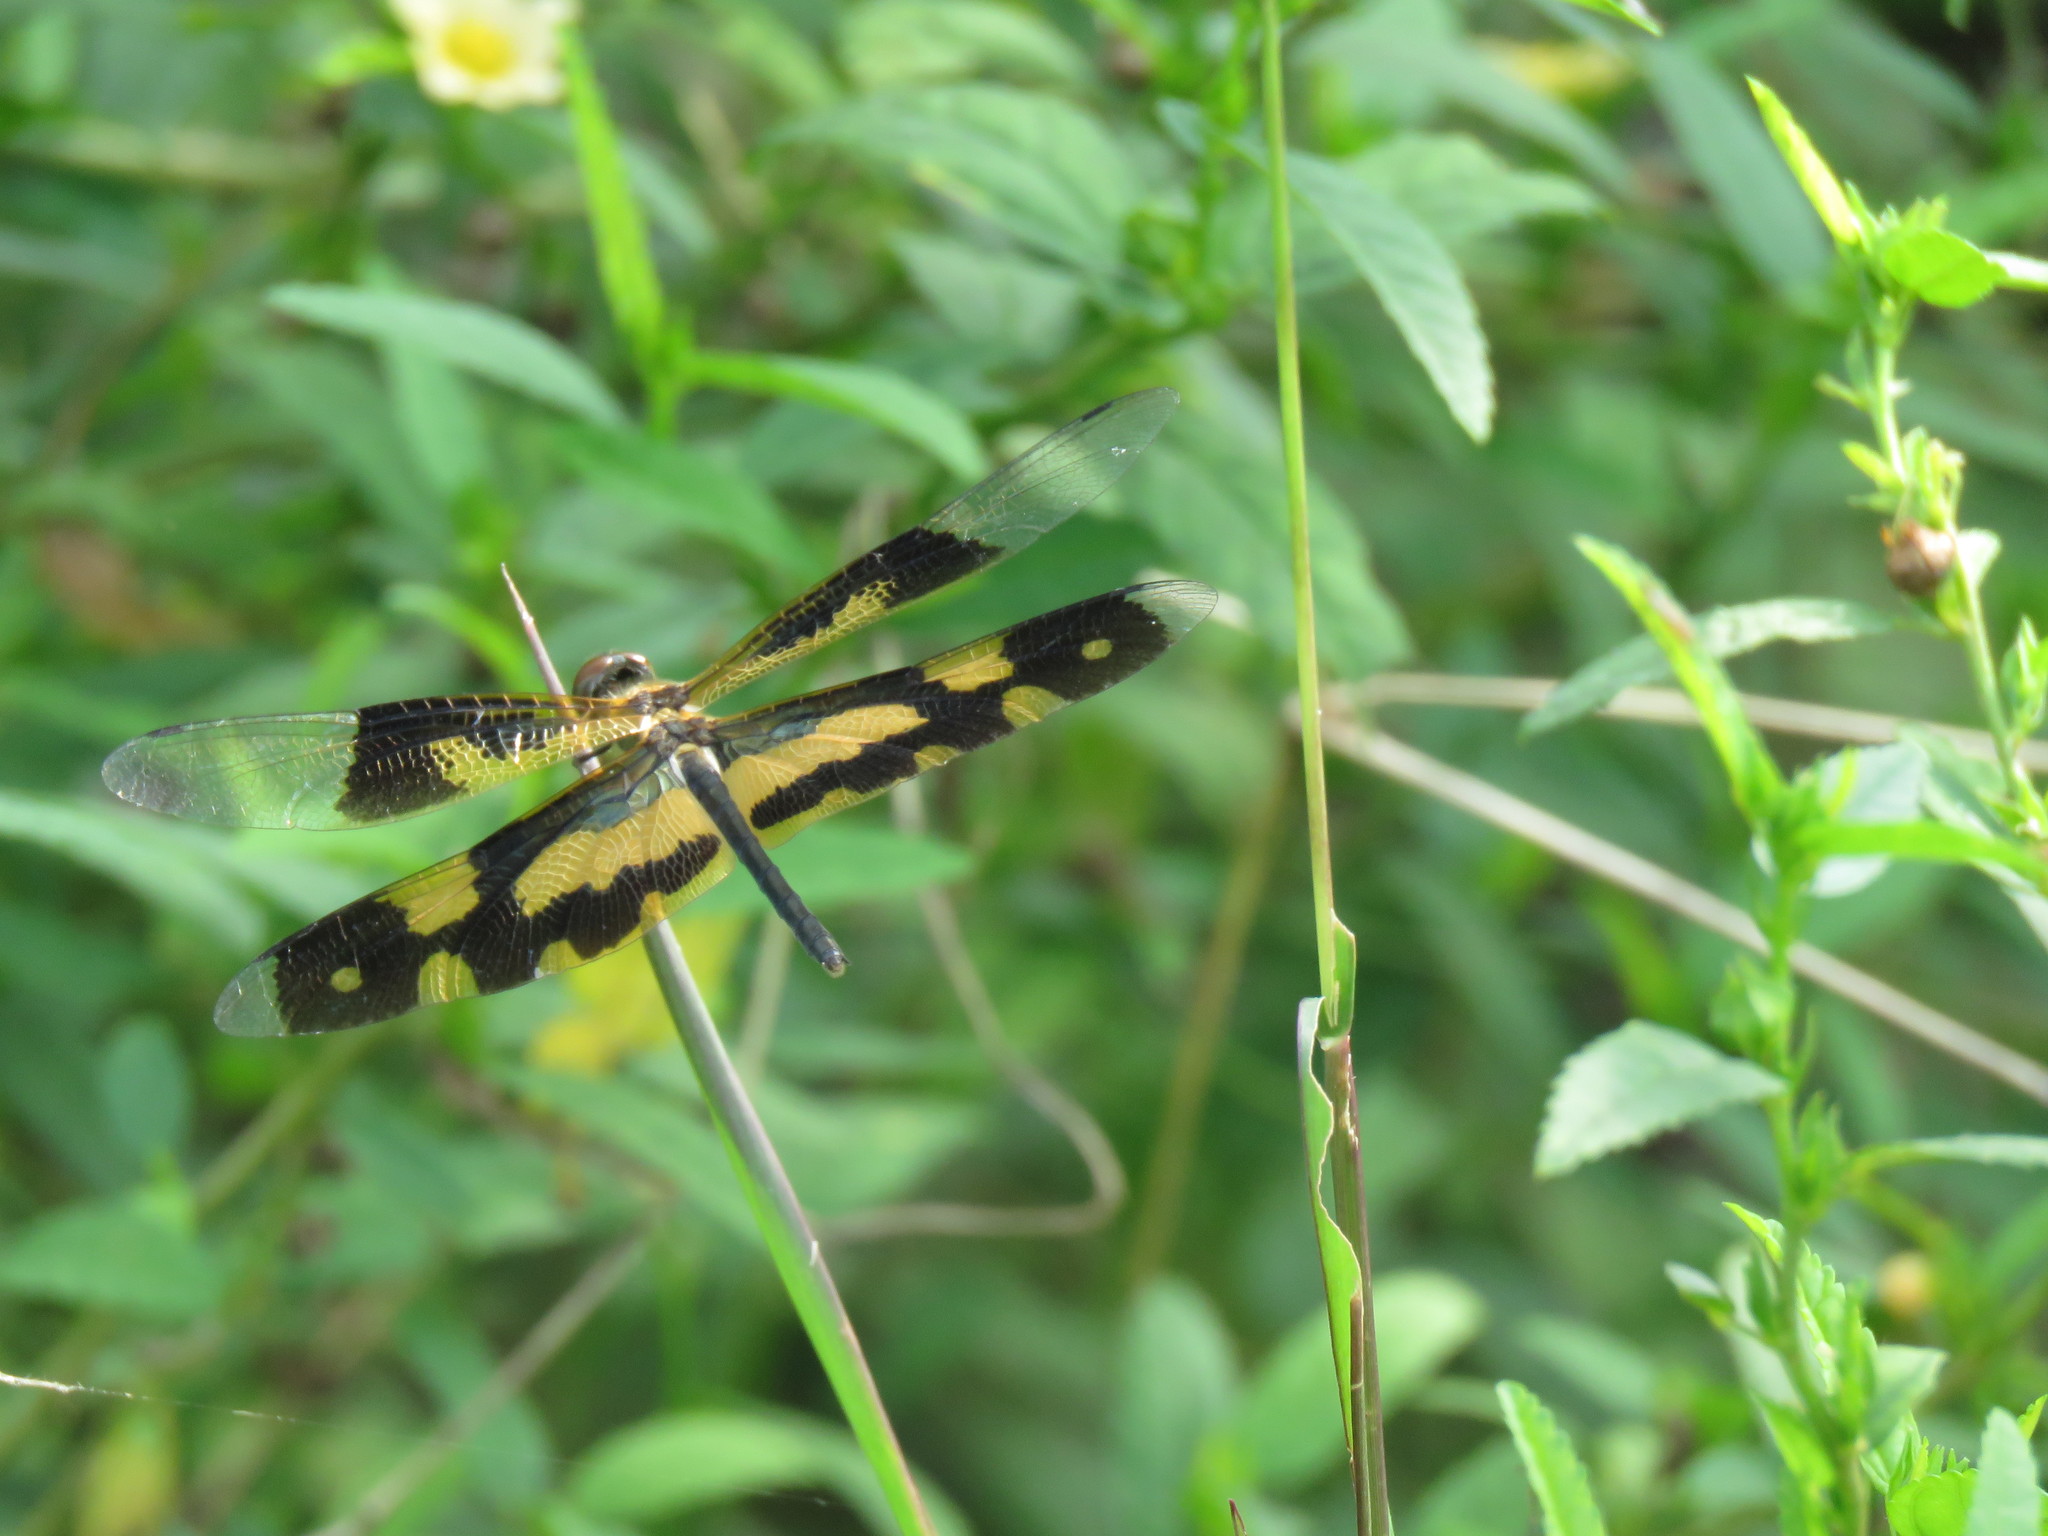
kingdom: Animalia
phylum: Arthropoda
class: Insecta
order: Odonata
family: Libellulidae
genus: Rhyothemis
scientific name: Rhyothemis variegata
